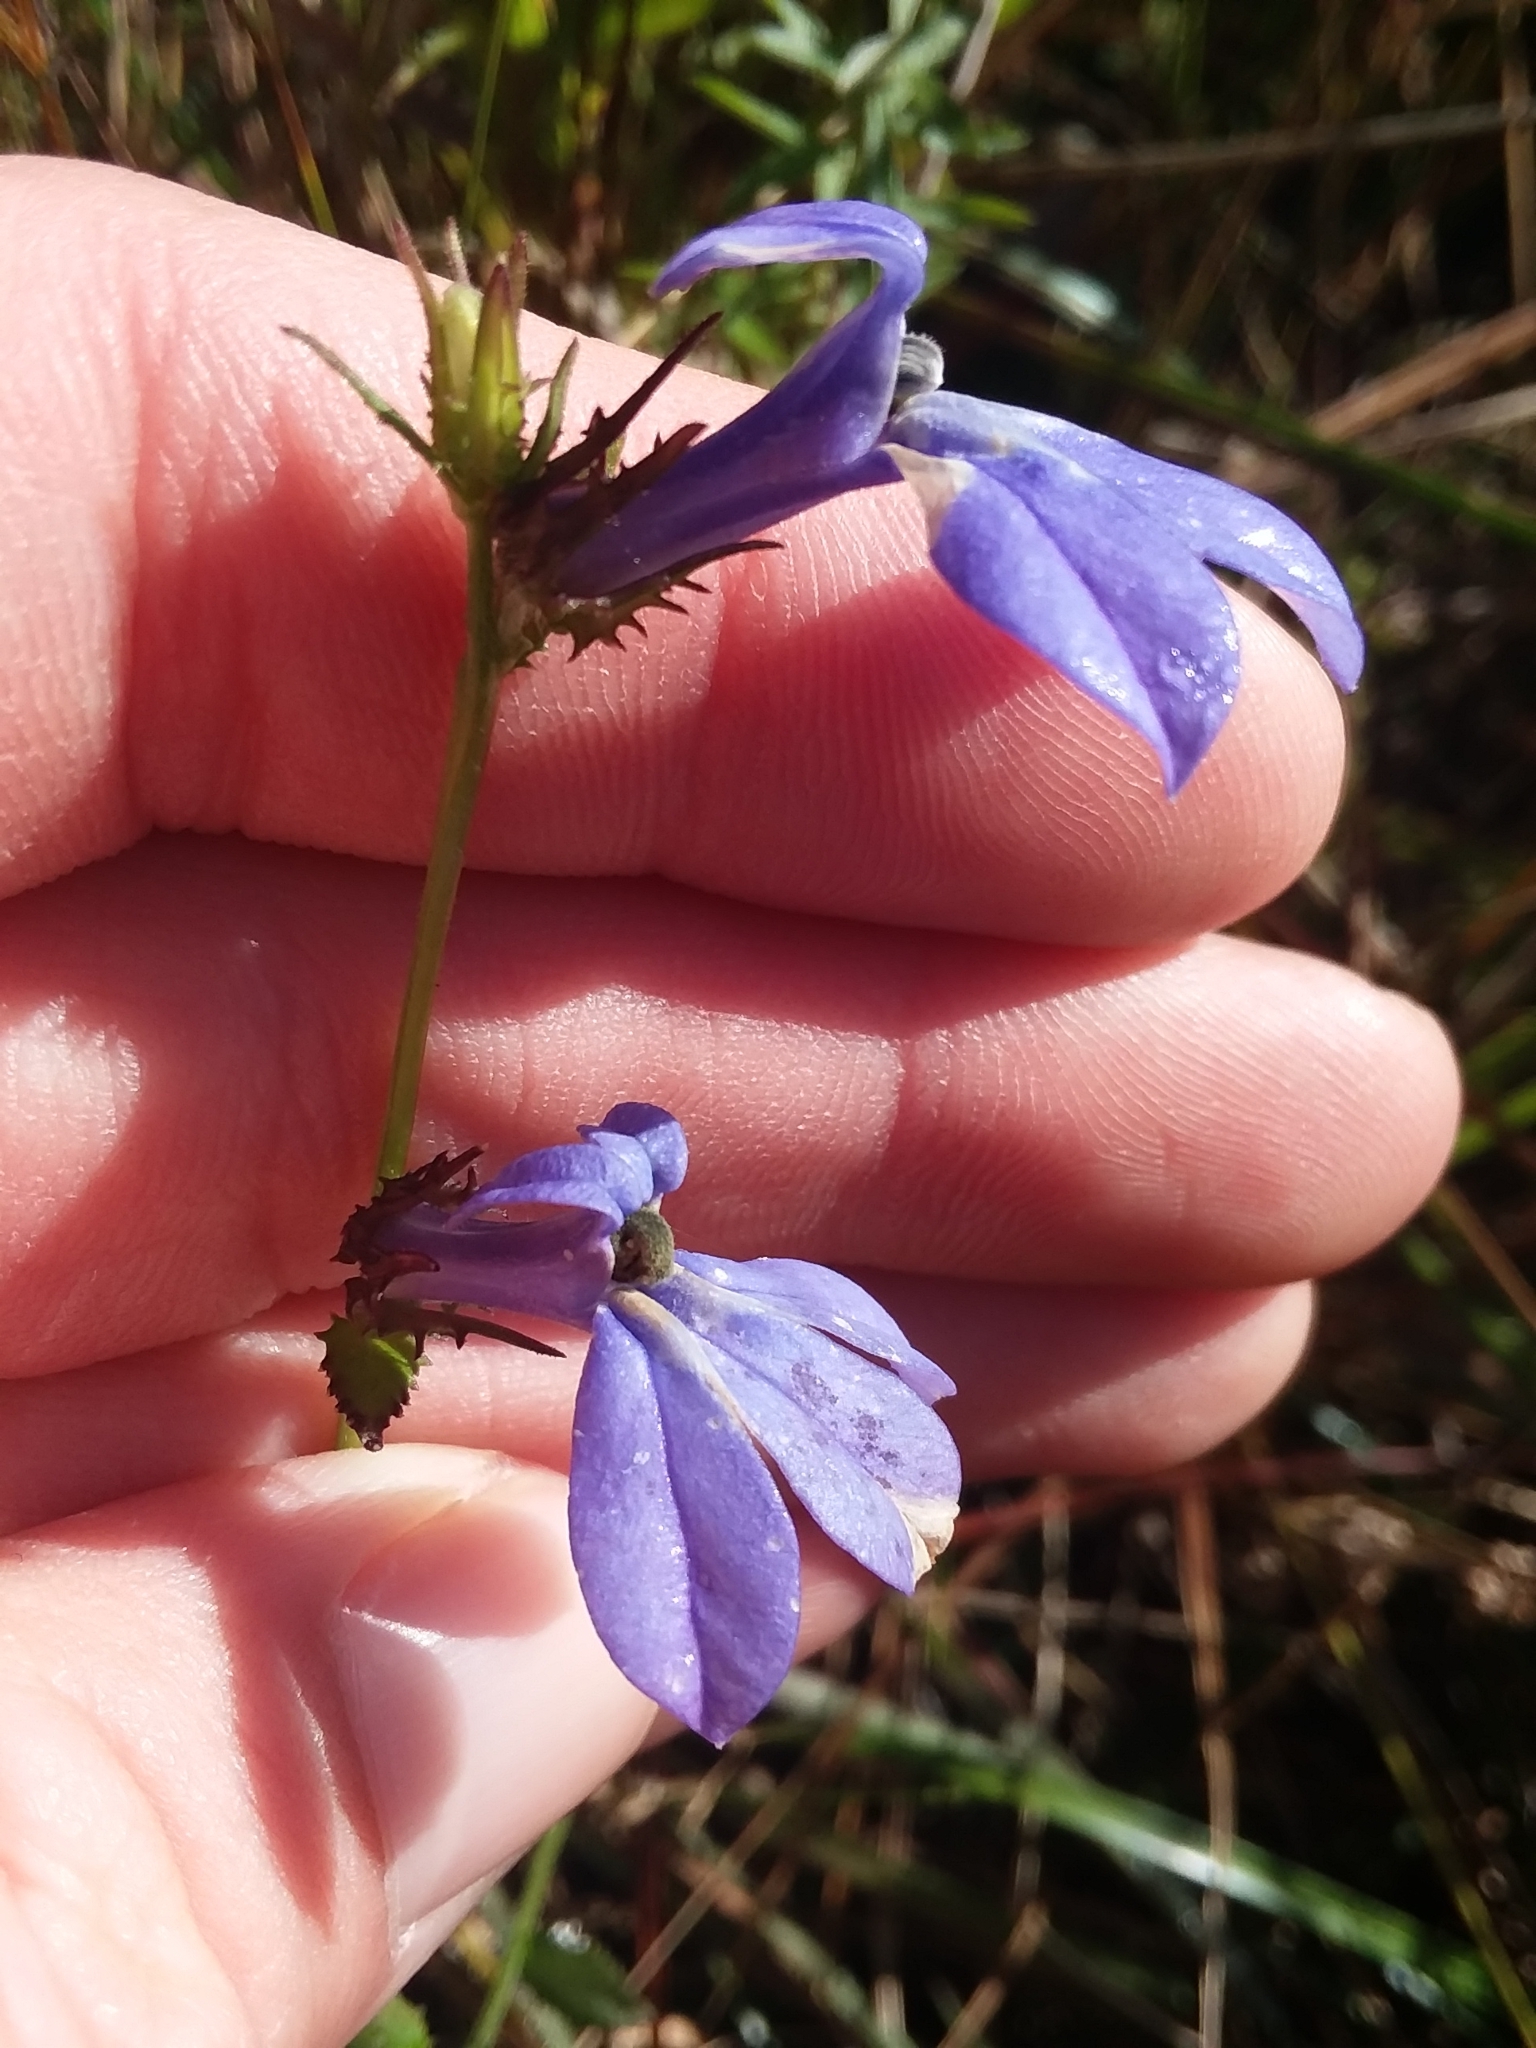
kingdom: Plantae
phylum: Tracheophyta
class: Magnoliopsida
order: Asterales
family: Campanulaceae
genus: Lobelia
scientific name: Lobelia rogersii
